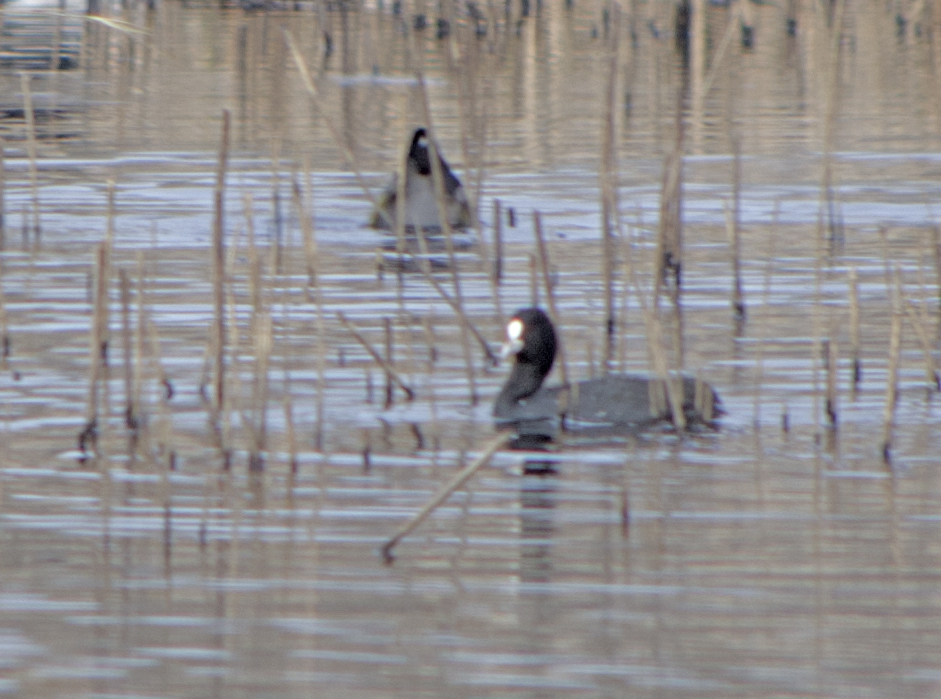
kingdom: Animalia
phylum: Chordata
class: Aves
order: Gruiformes
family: Rallidae
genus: Fulica
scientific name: Fulica atra
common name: Eurasian coot
